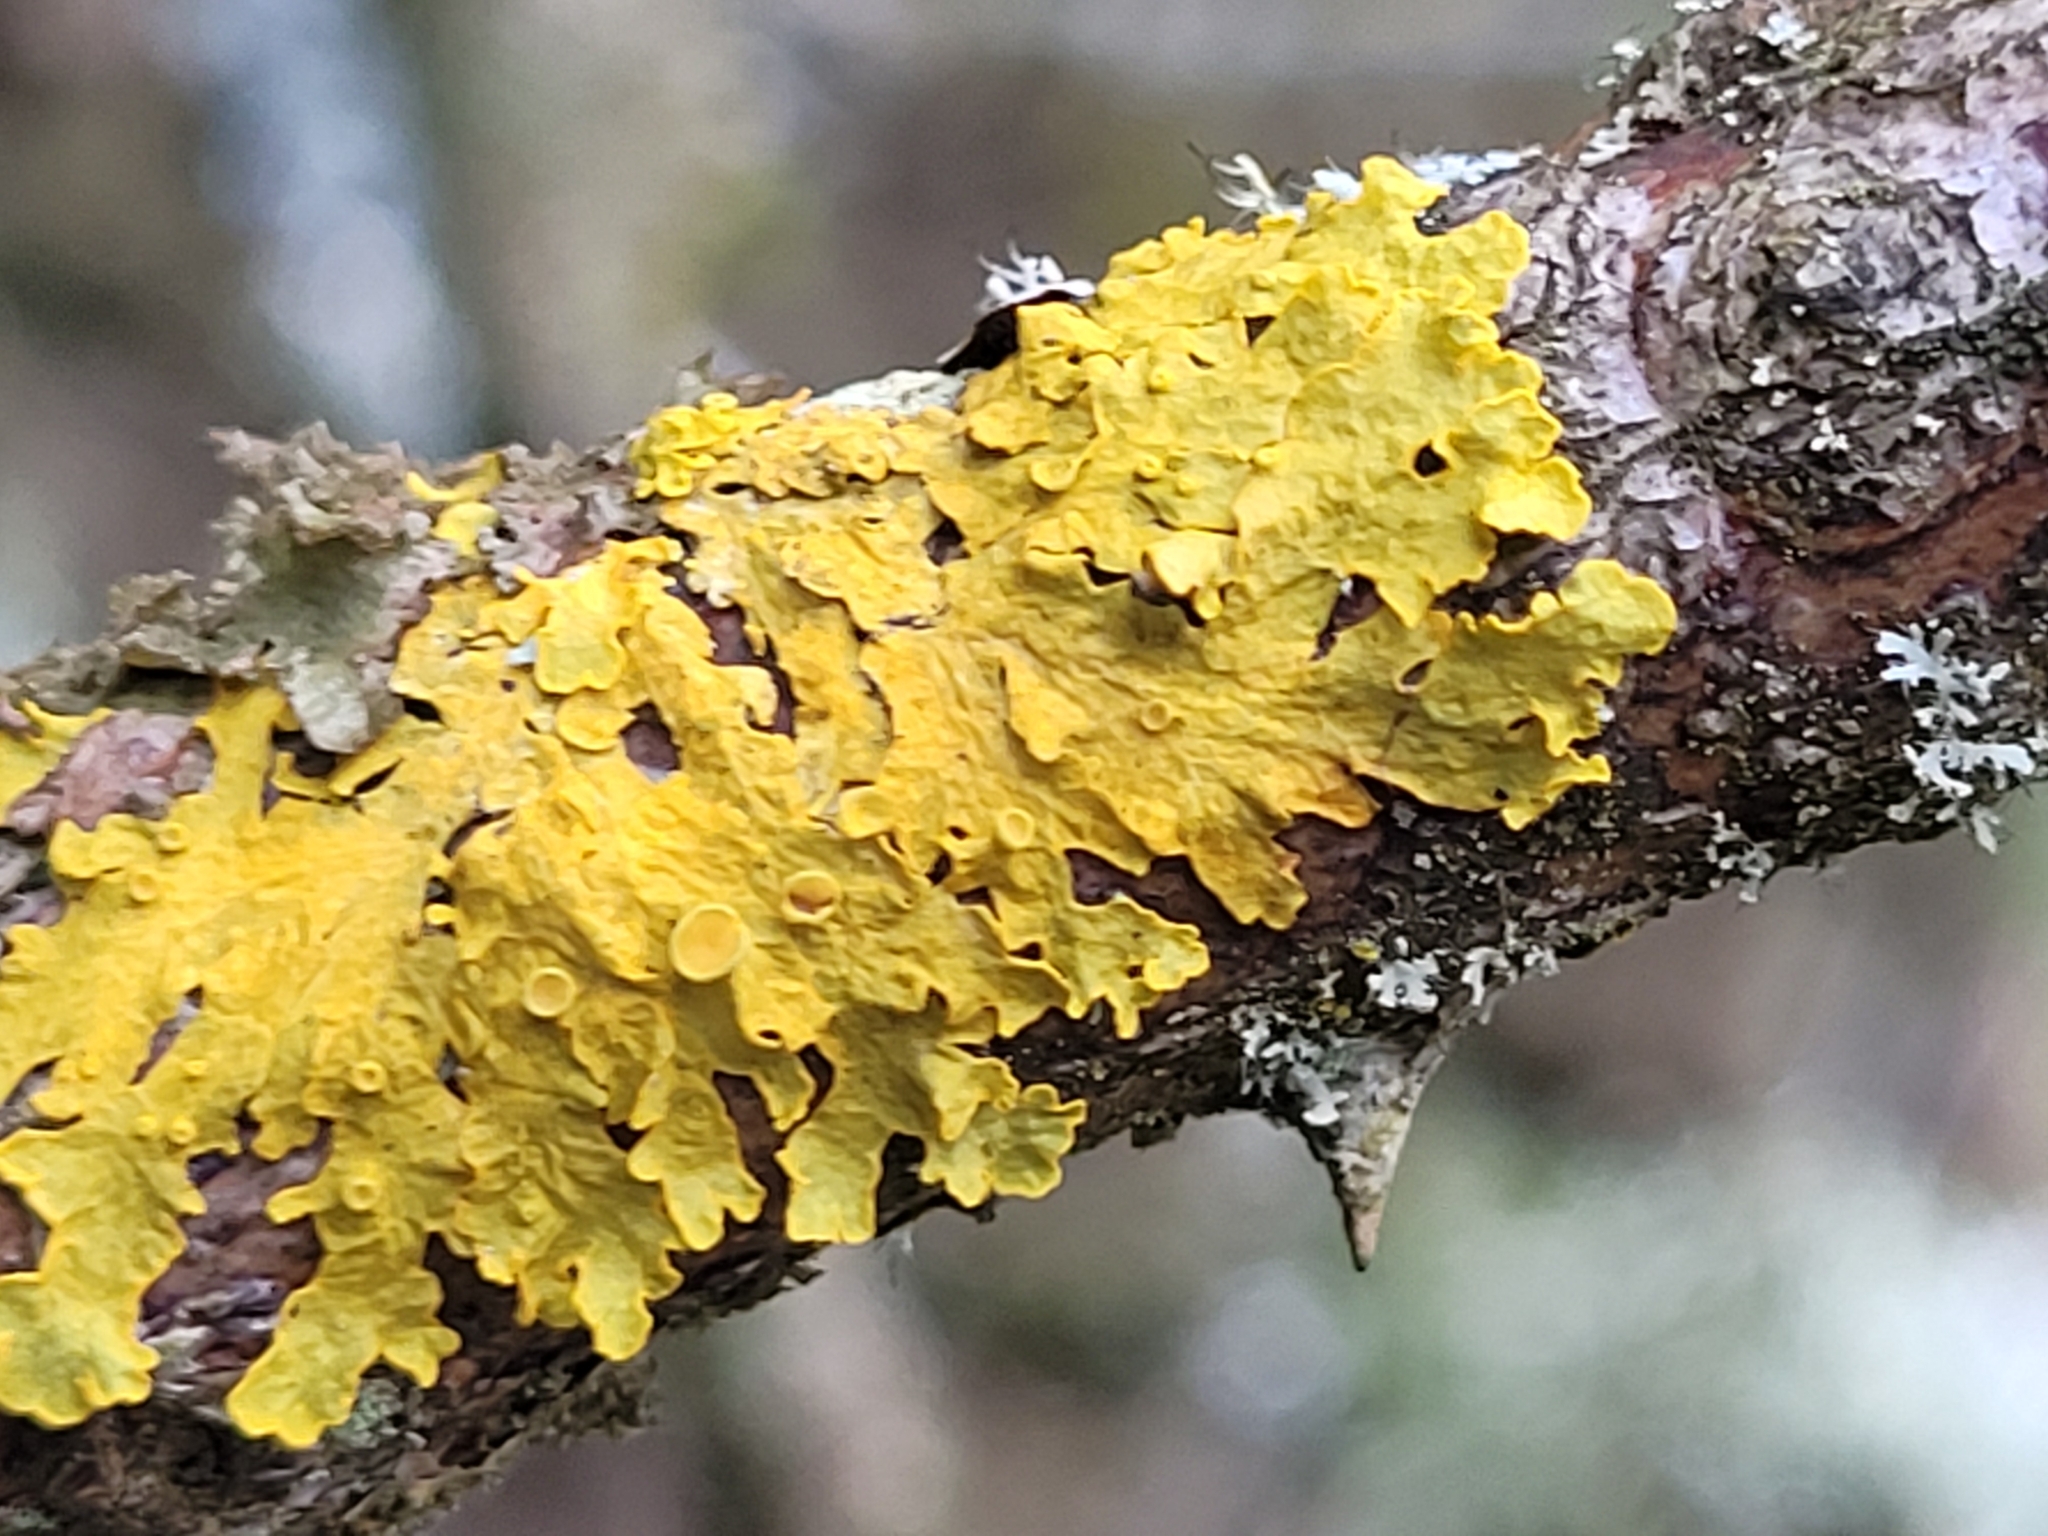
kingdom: Fungi
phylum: Ascomycota
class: Lecanoromycetes
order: Teloschistales
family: Teloschistaceae
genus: Xanthoria
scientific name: Xanthoria parietina
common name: Common orange lichen
